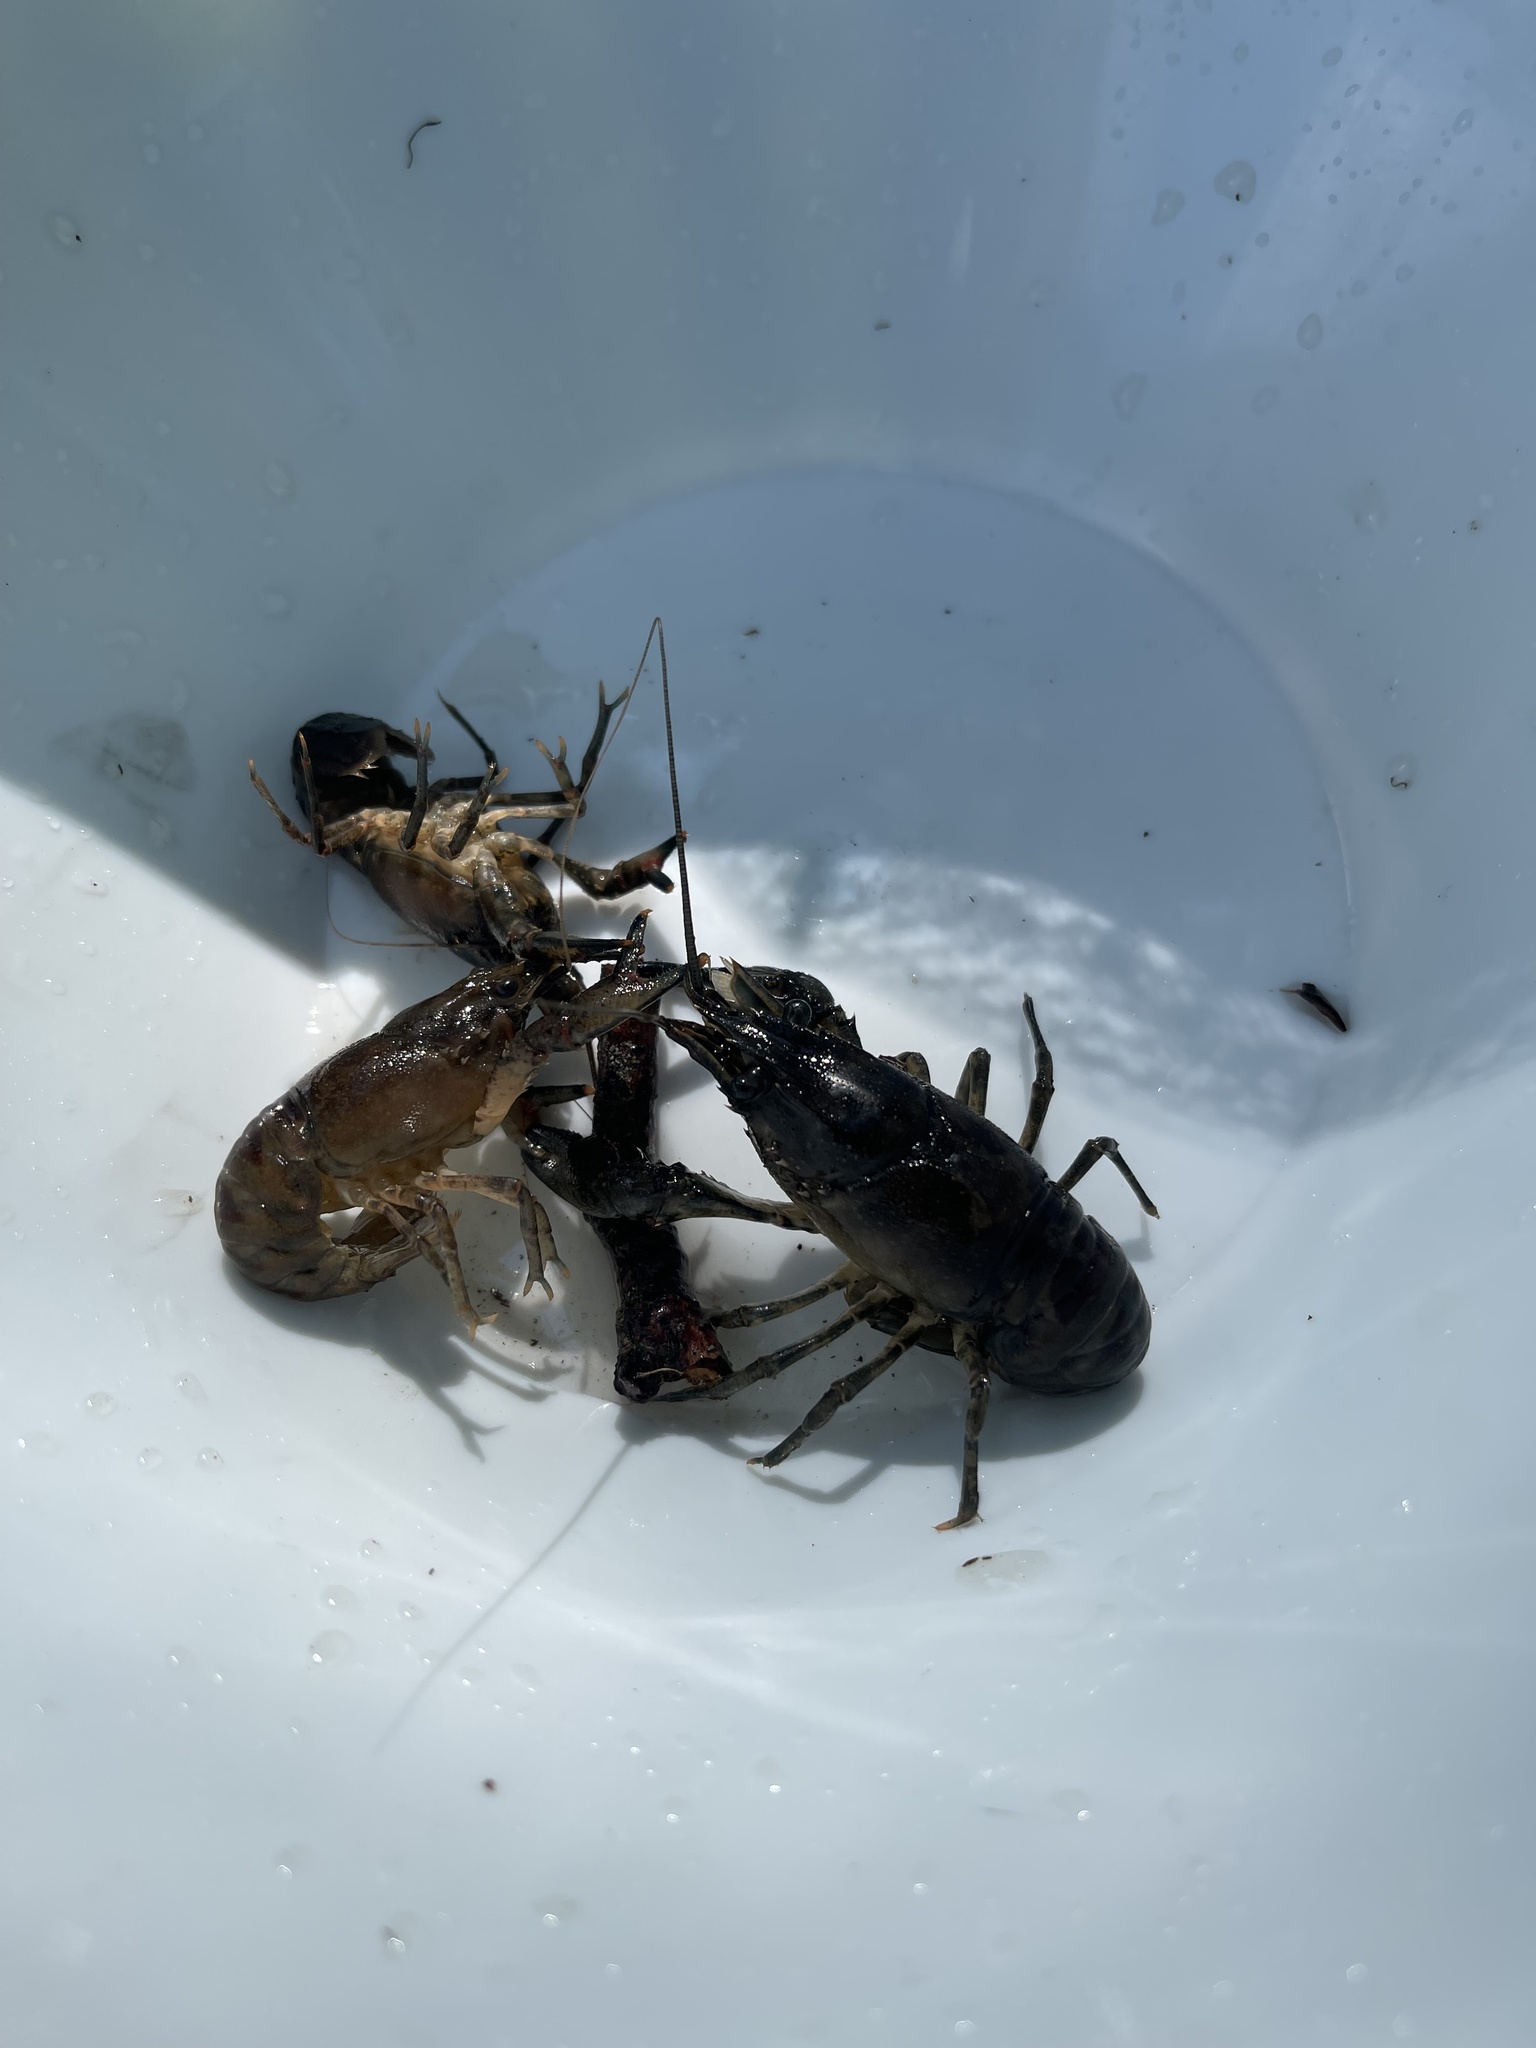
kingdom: Animalia
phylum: Arthropoda
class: Malacostraca
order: Decapoda
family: Cambaridae
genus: Faxonius
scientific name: Faxonius limosus
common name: American crayfish
